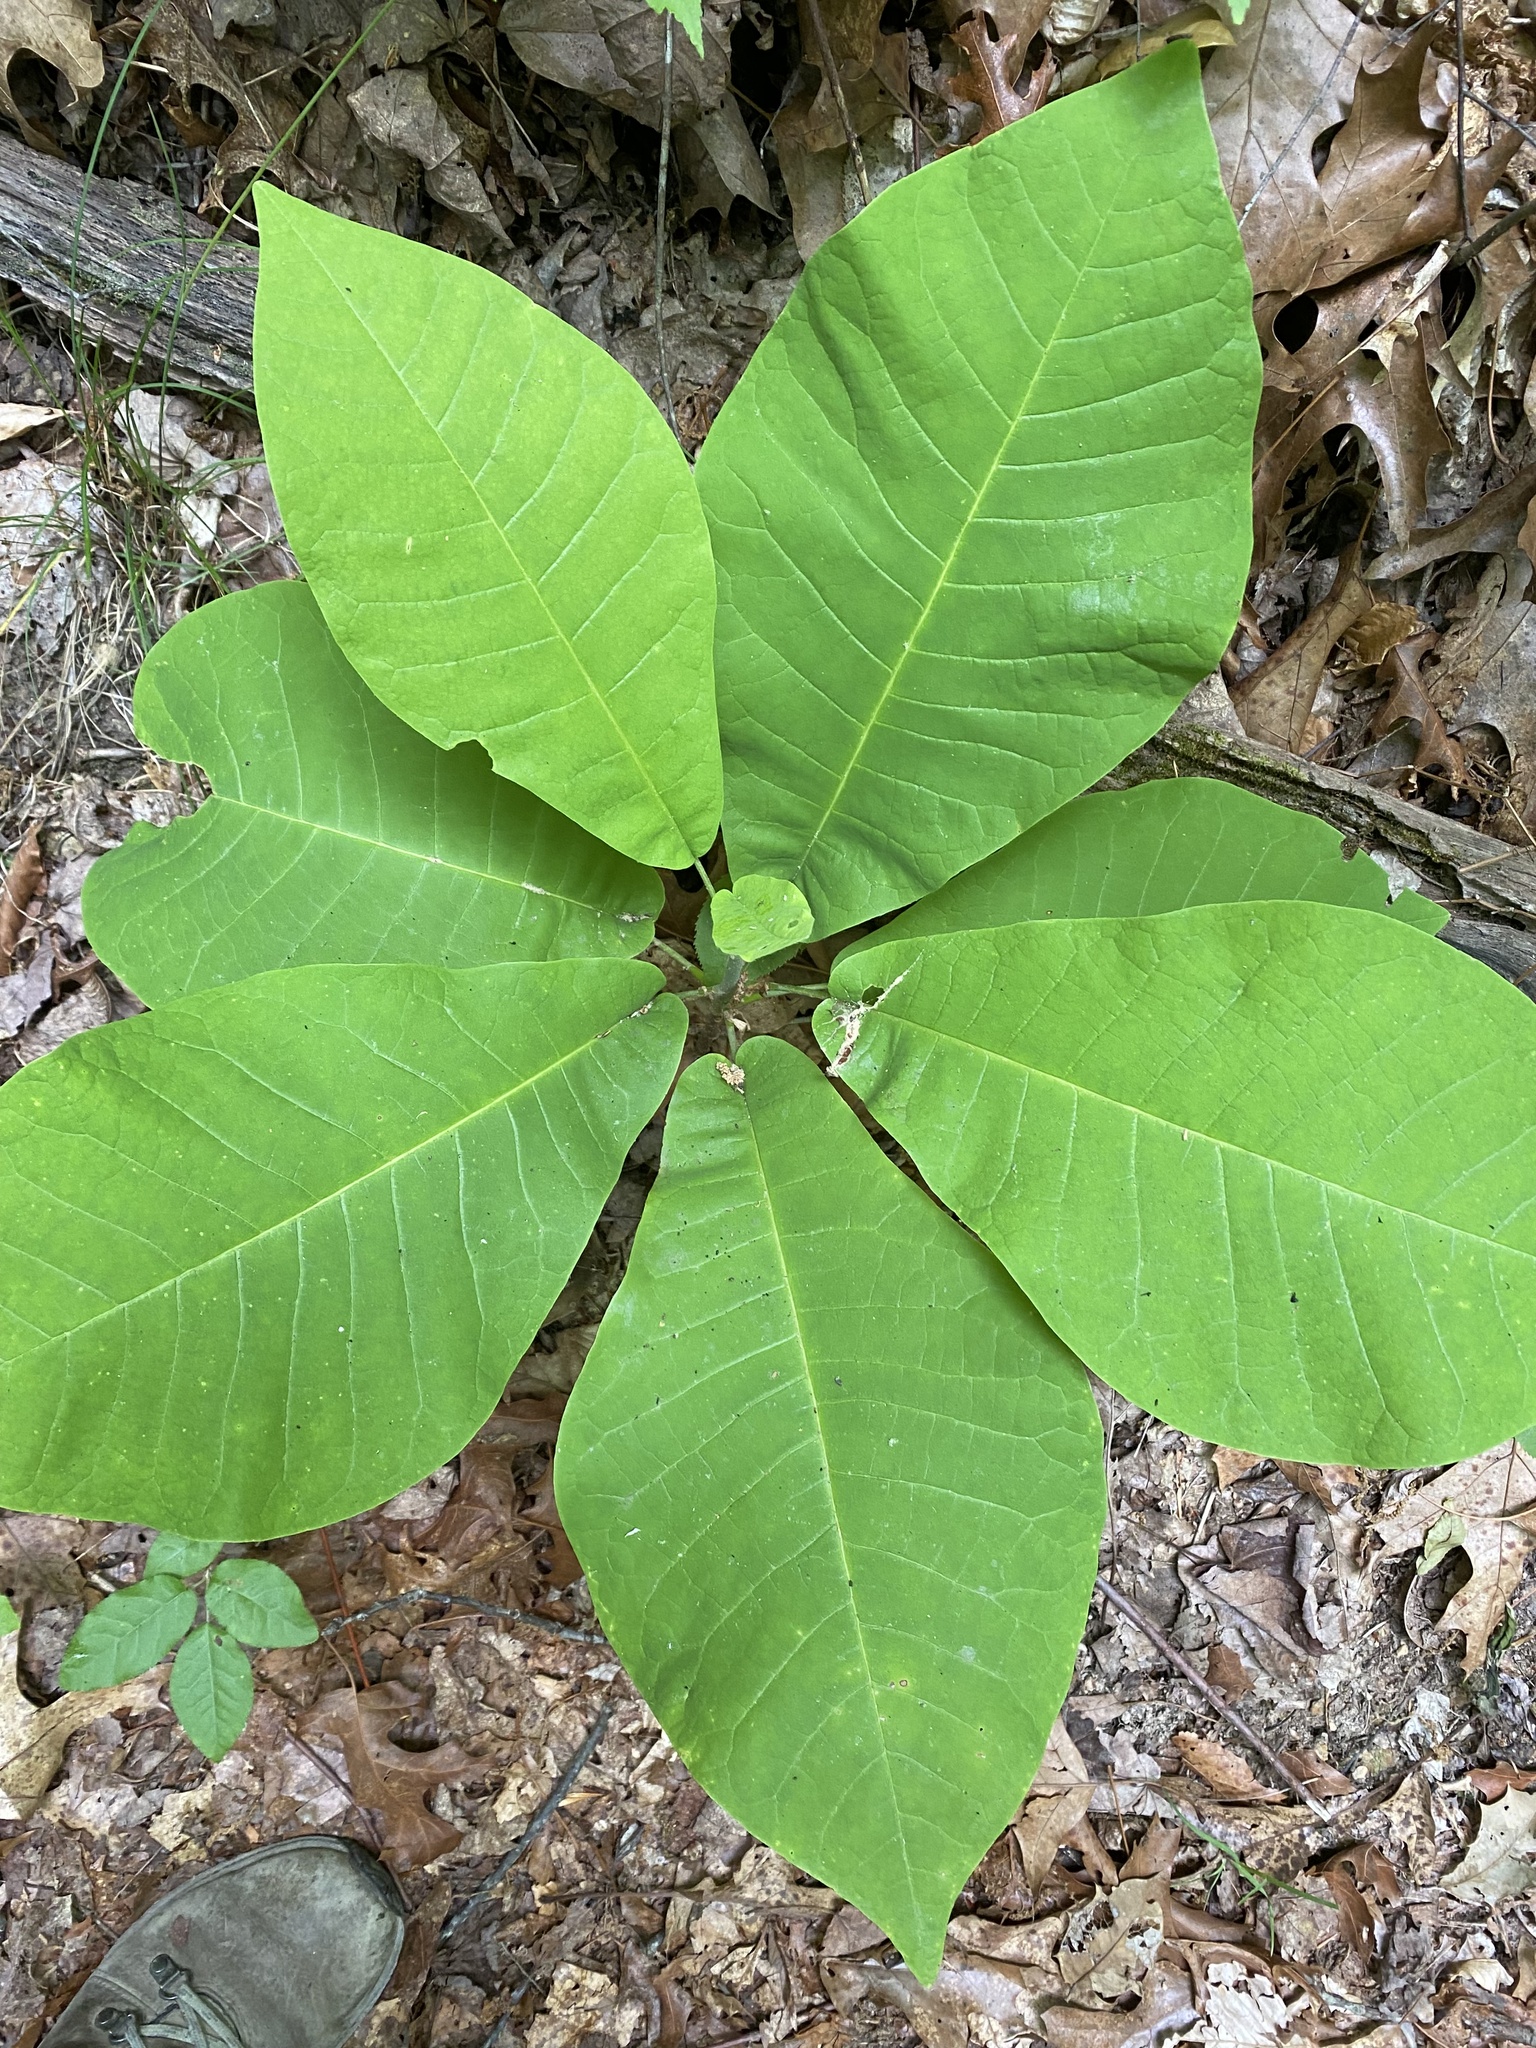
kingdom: Plantae
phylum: Tracheophyta
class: Magnoliopsida
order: Magnoliales
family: Magnoliaceae
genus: Magnolia
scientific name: Magnolia macrophylla
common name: Big-leaf magnolia
